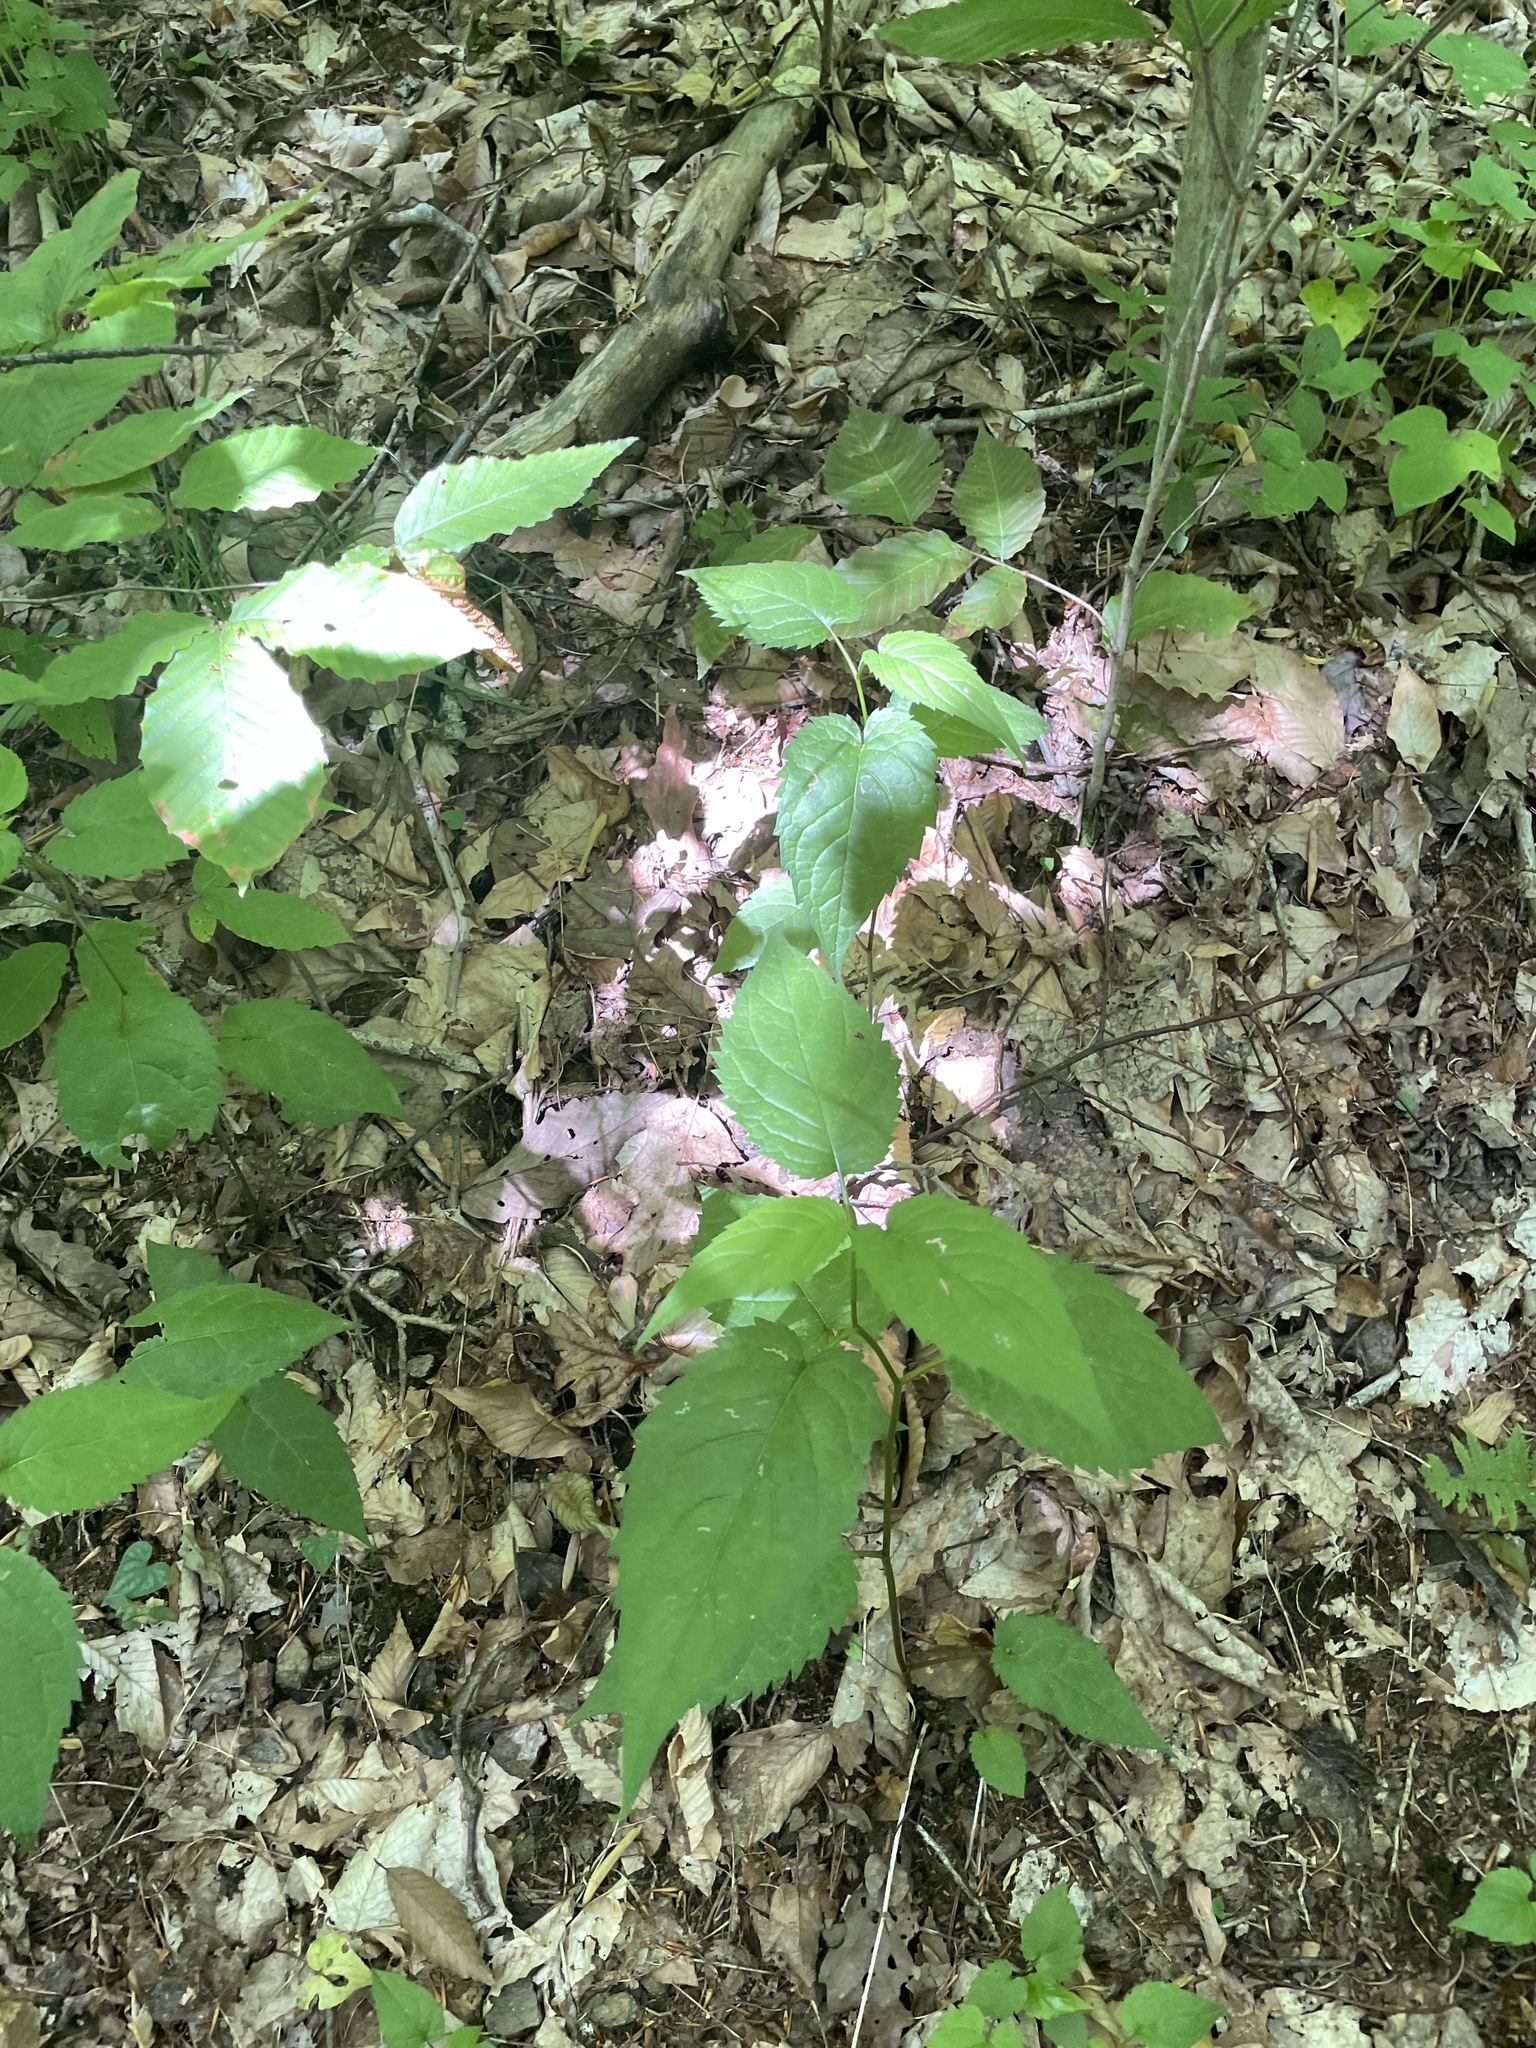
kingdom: Plantae
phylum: Tracheophyta
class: Magnoliopsida
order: Asterales
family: Asteraceae
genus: Eurybia
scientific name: Eurybia divaricata
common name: White wood aster
